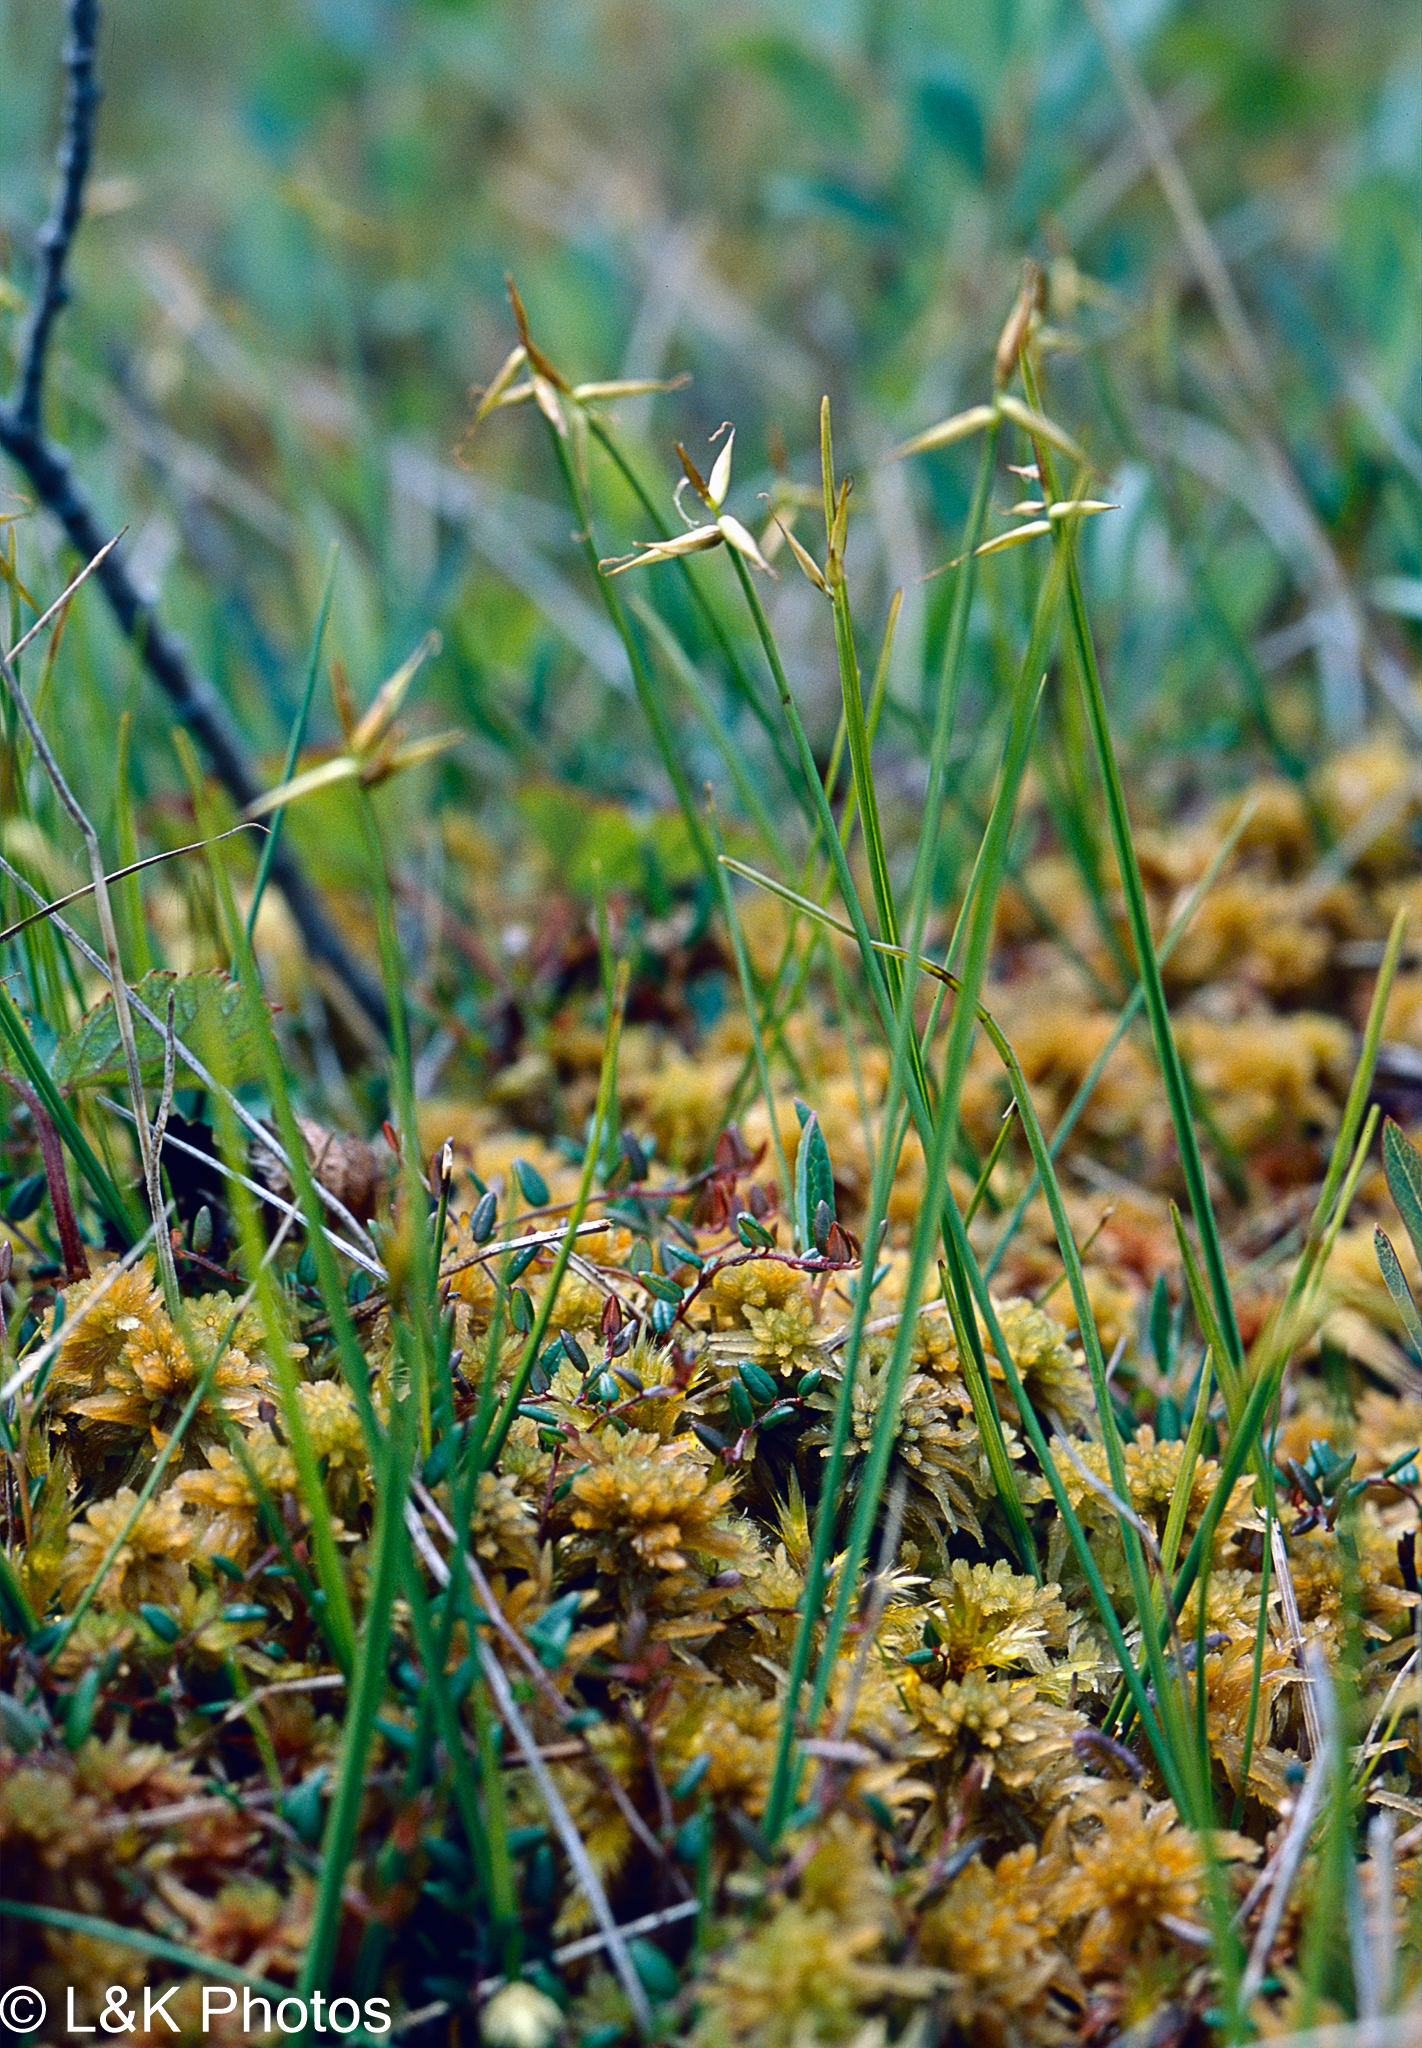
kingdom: Plantae
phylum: Tracheophyta
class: Liliopsida
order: Poales
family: Cyperaceae
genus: Carex
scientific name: Carex pauciflora
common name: Few-flowered sedge
